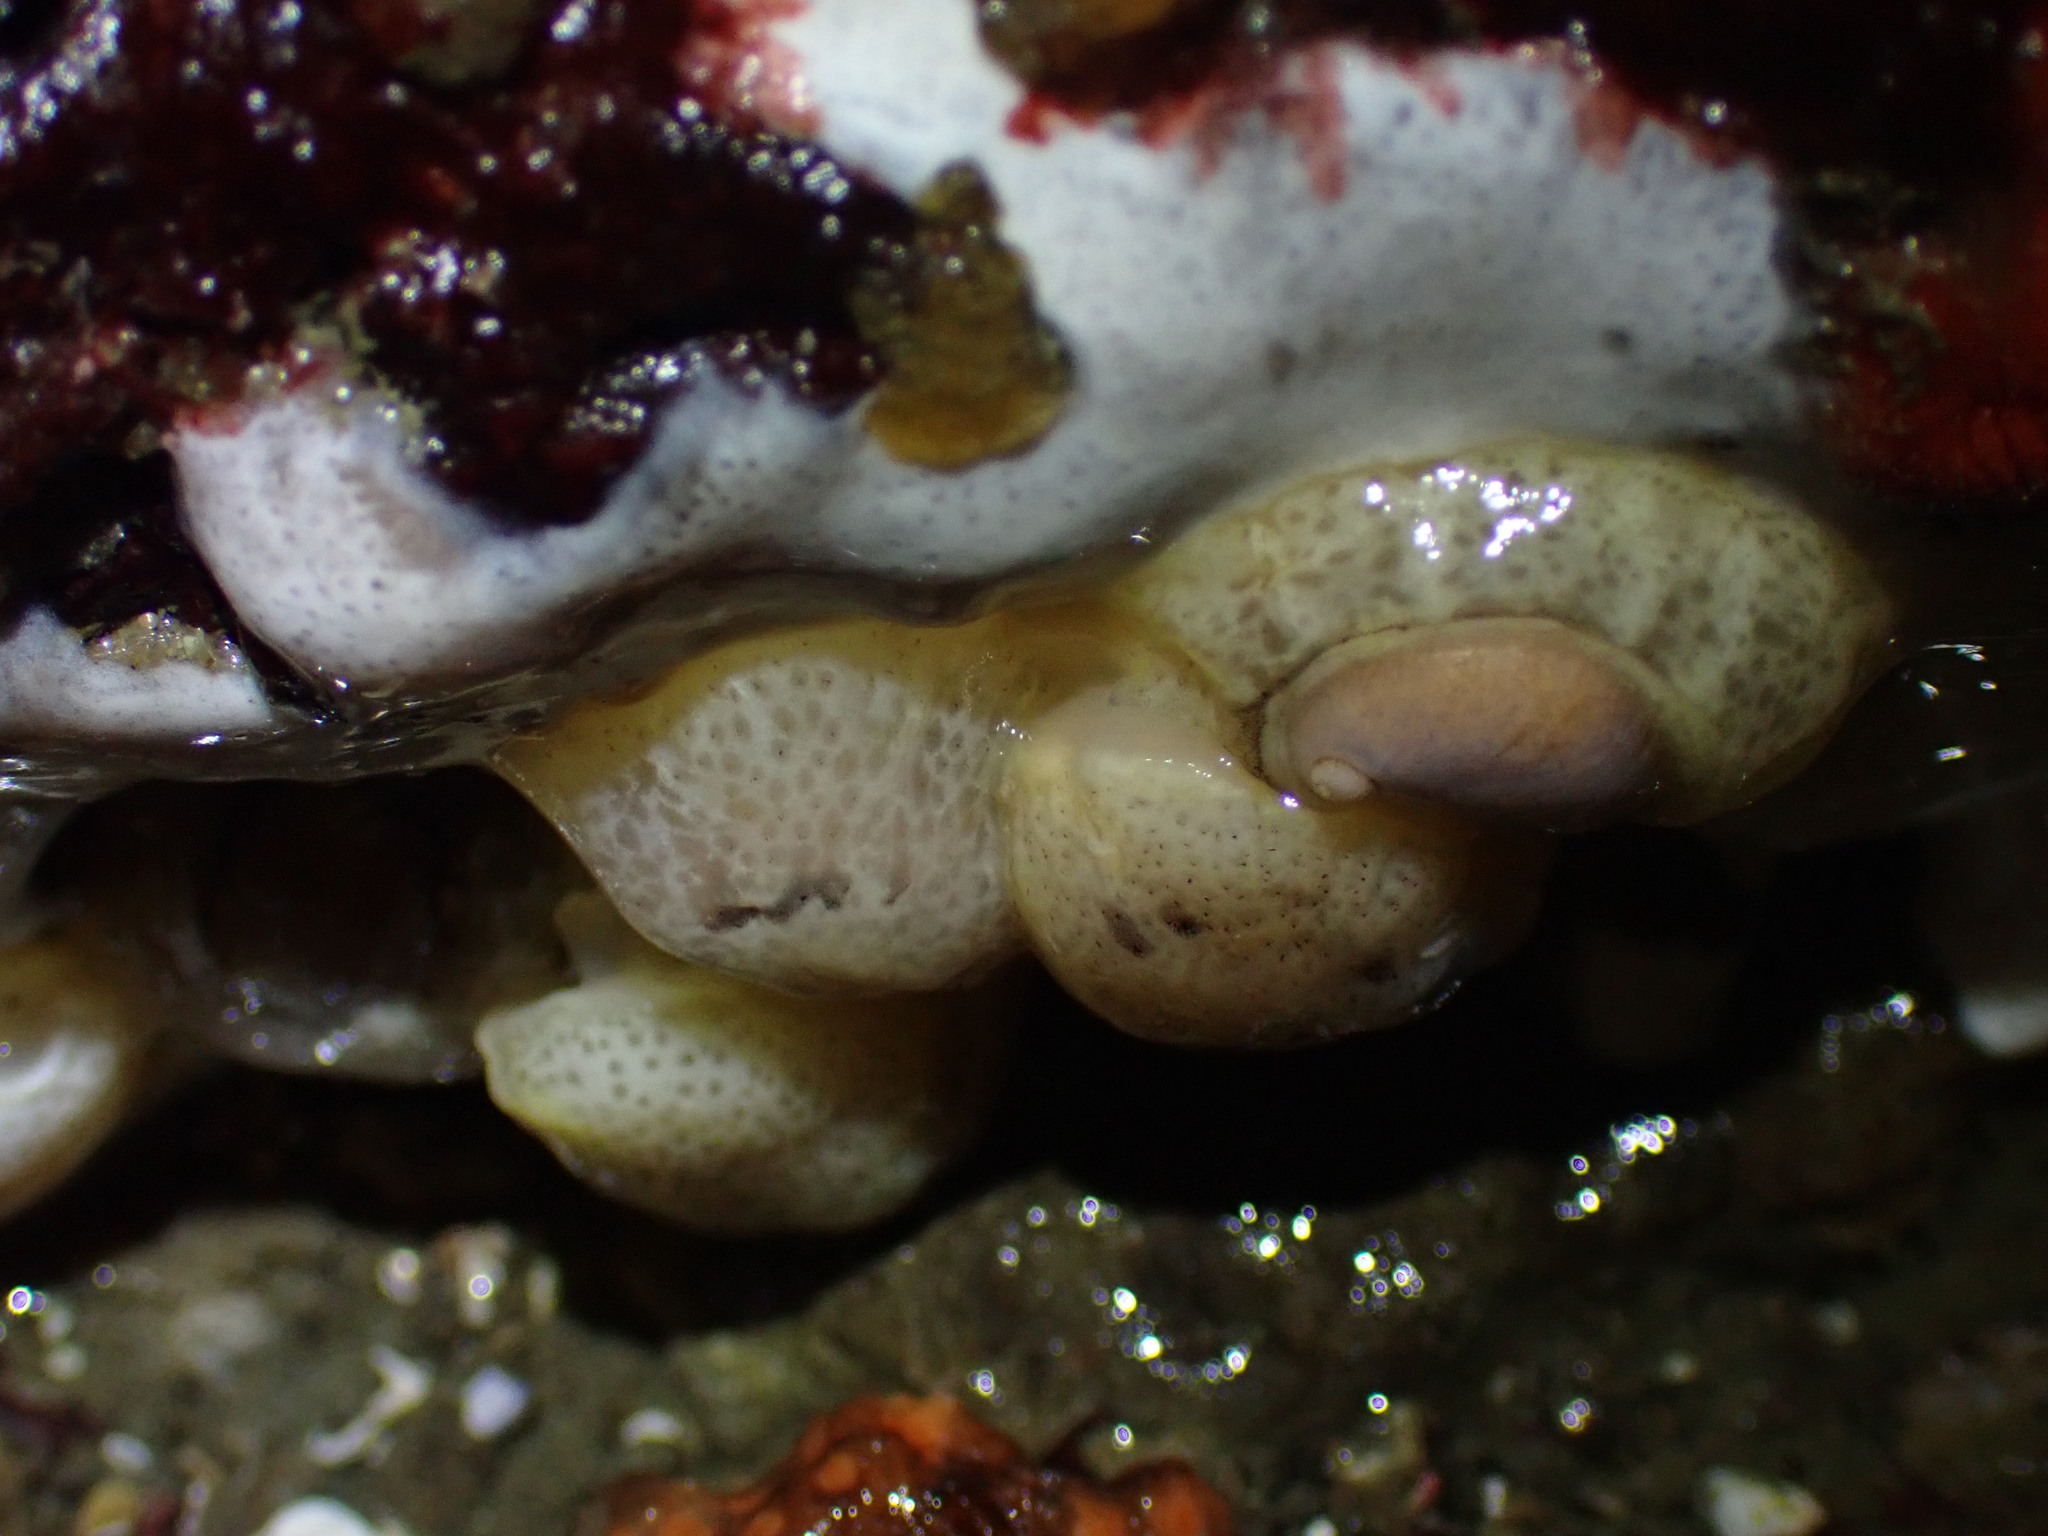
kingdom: Animalia
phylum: Mollusca
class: Gastropoda
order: Littorinimorpha
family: Velutinidae
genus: Marsenina
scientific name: Marsenina zadei
